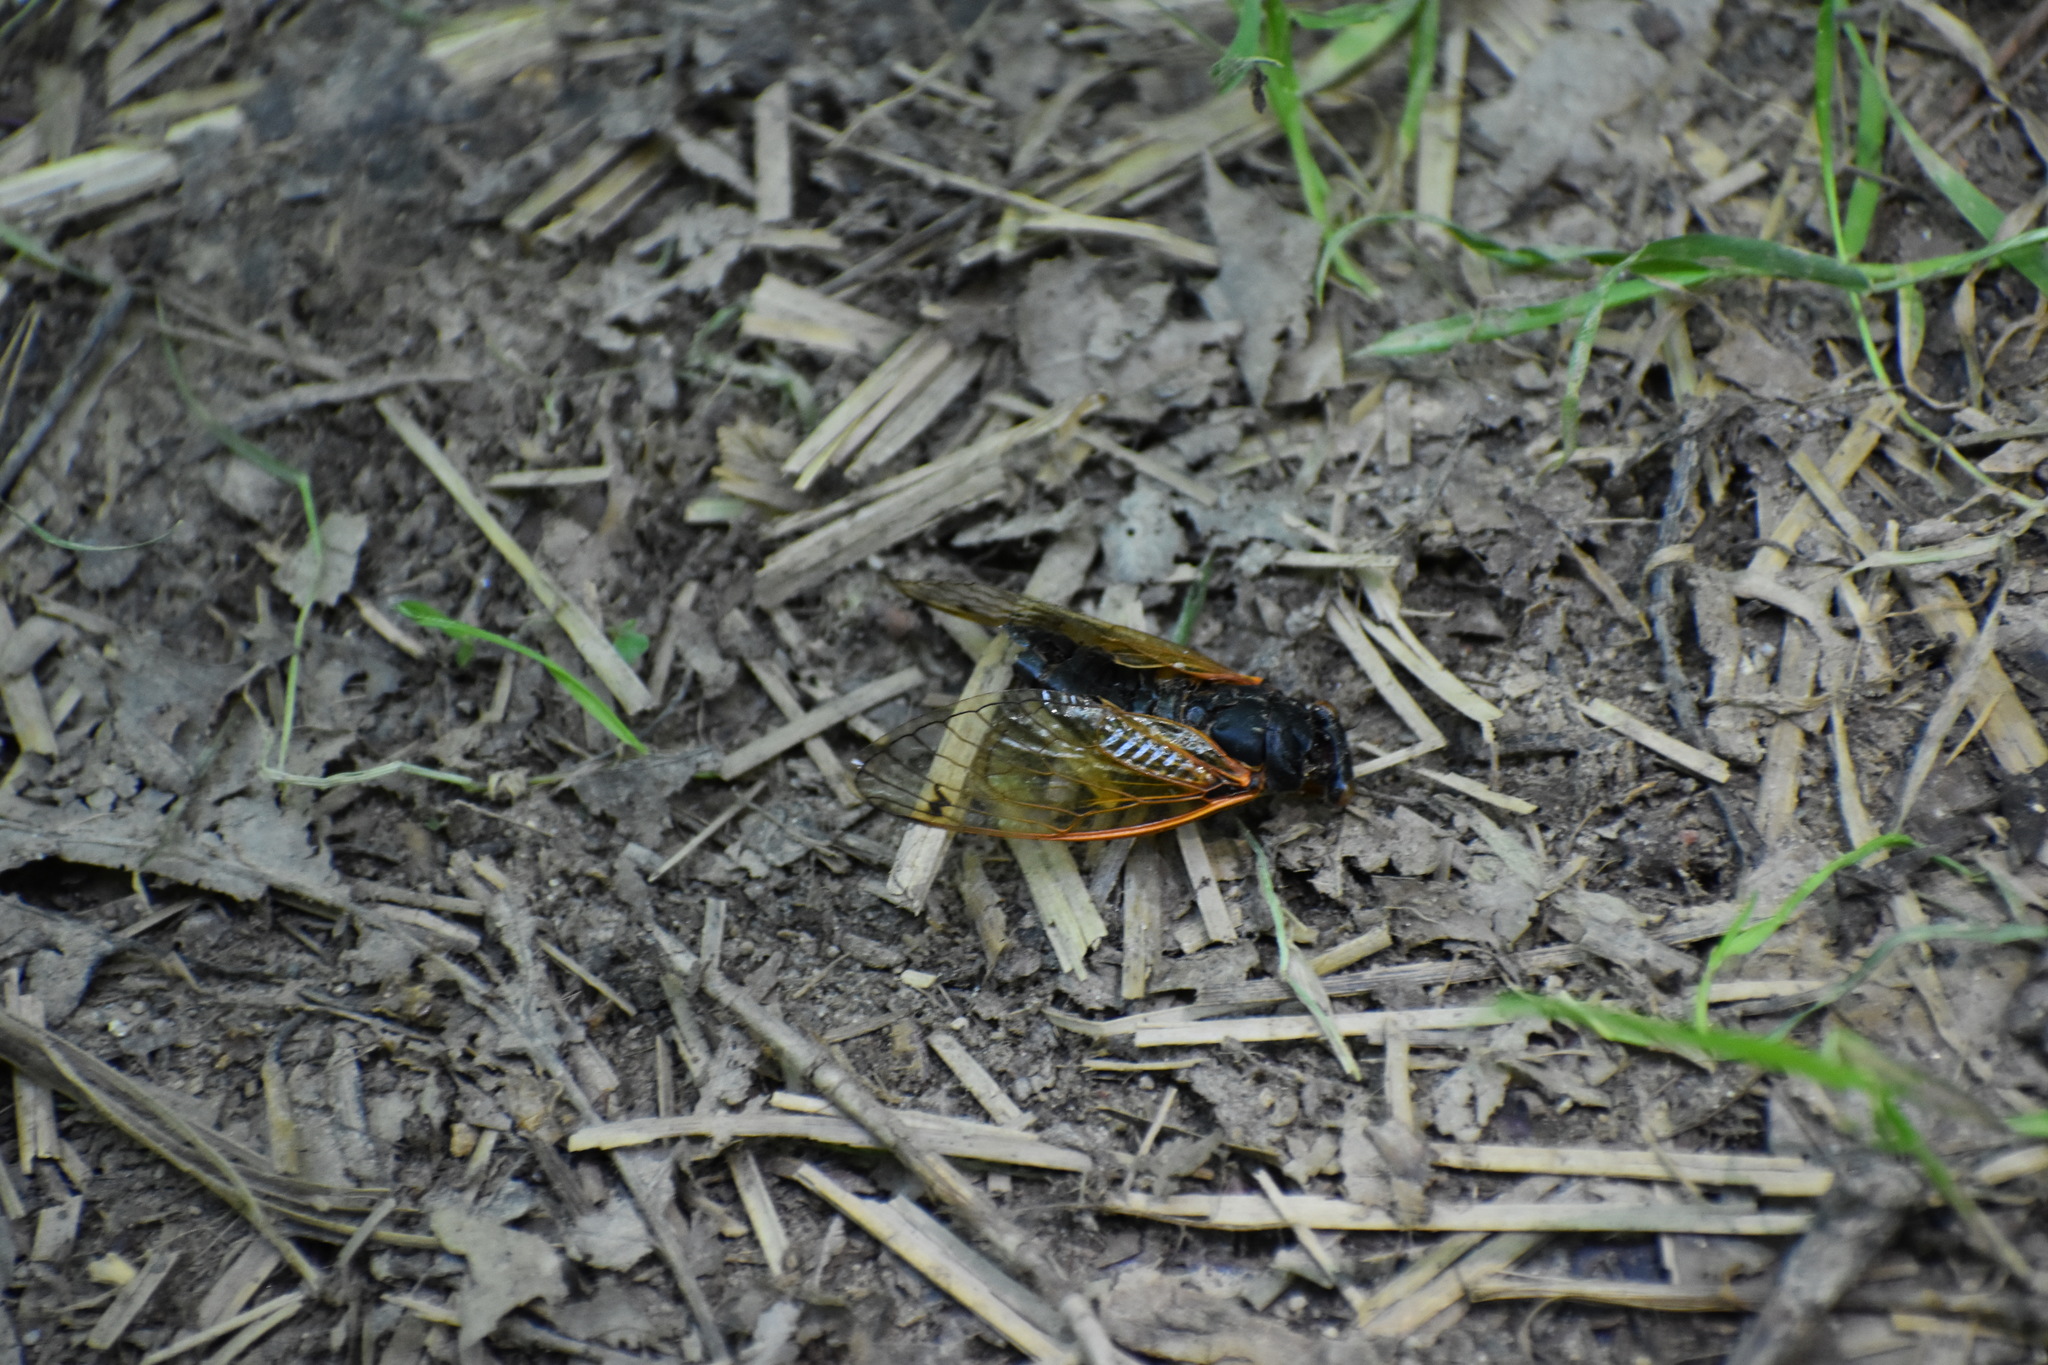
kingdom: Animalia
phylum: Arthropoda
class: Insecta
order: Hemiptera
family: Cicadidae
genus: Magicicada
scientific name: Magicicada cassini
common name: Cassin's 17-year cicada
